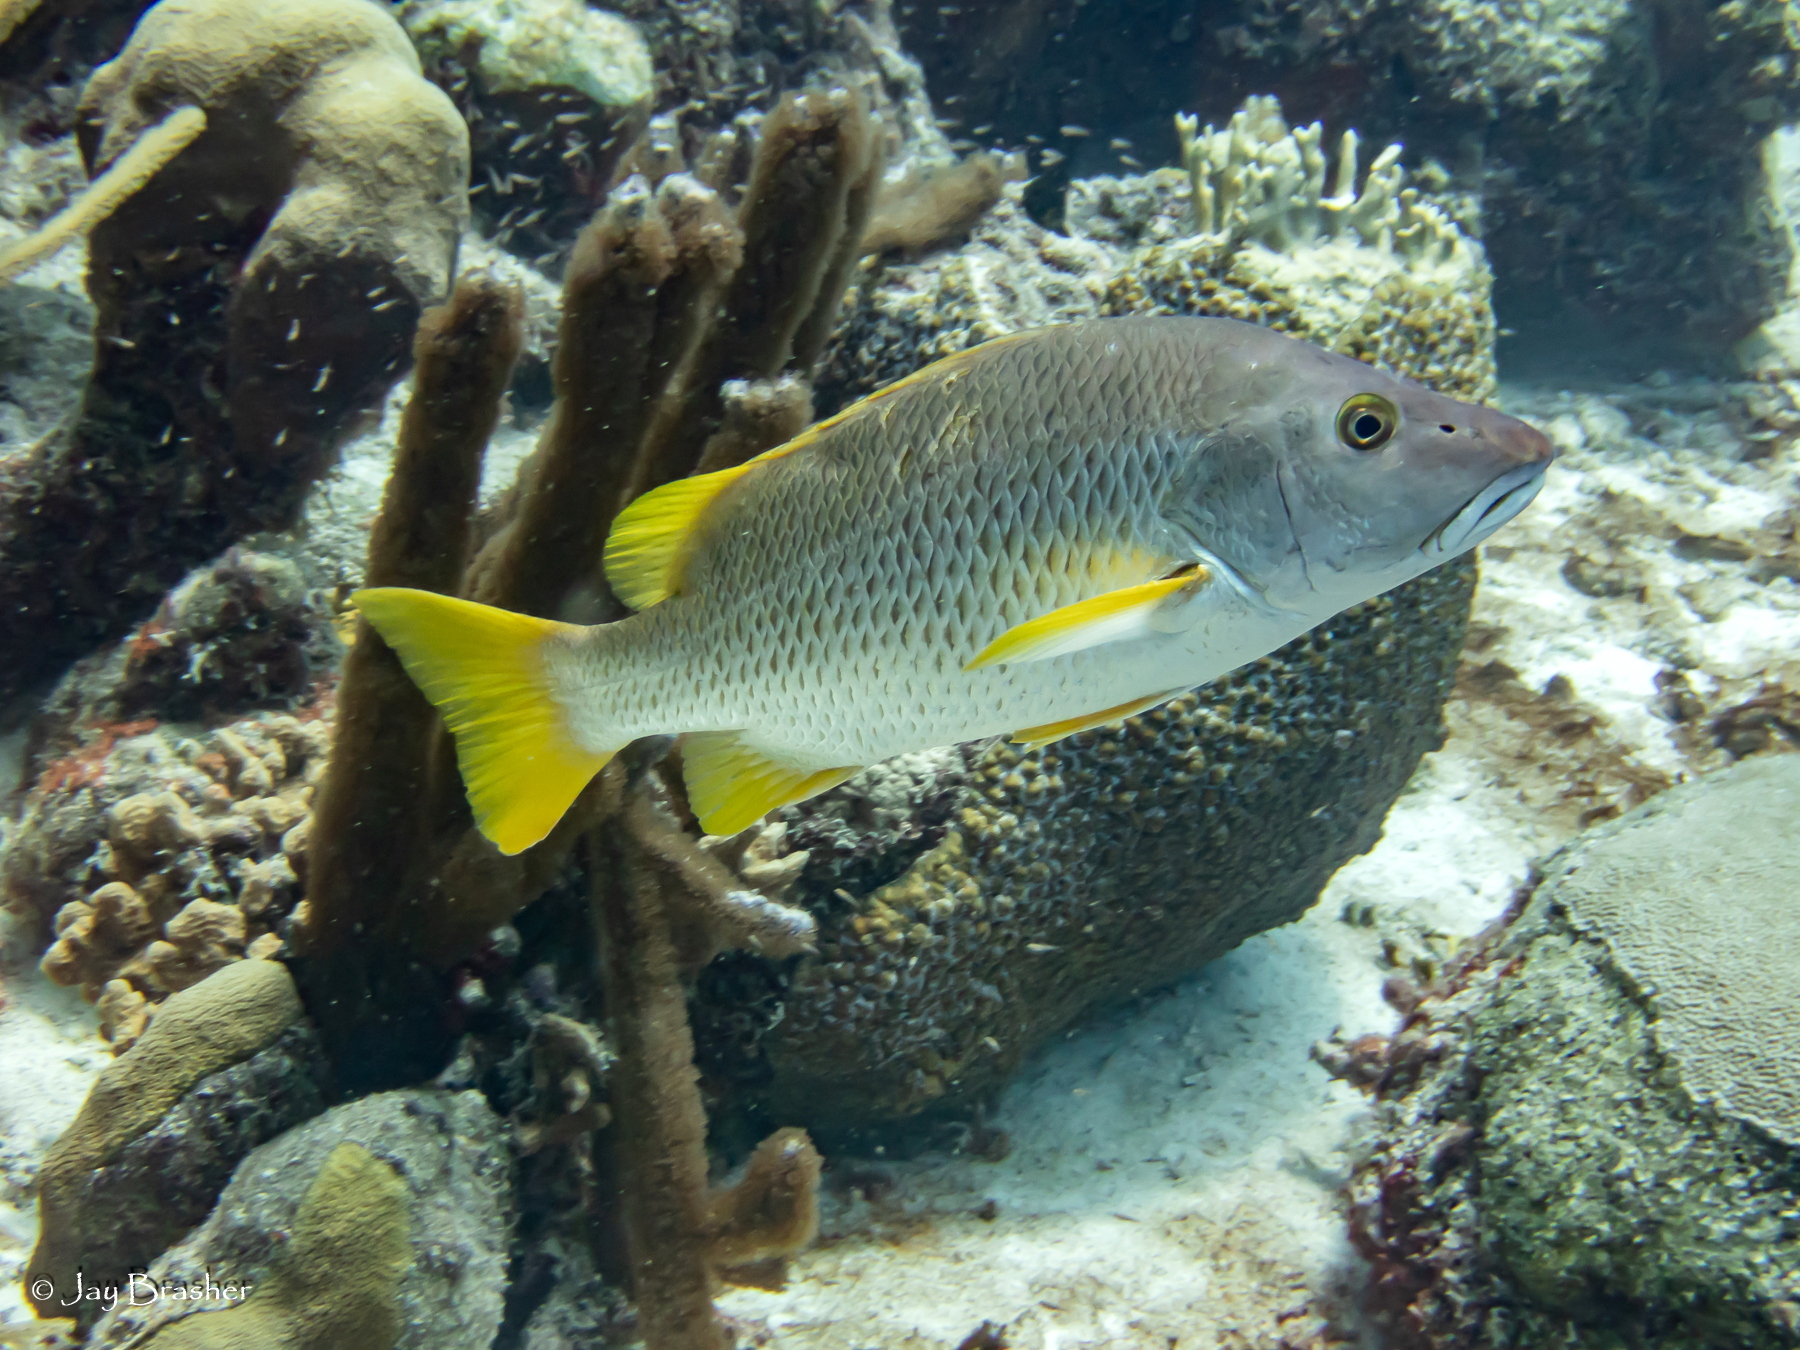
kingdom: Animalia
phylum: Chordata
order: Perciformes
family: Lutjanidae
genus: Lutjanus
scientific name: Lutjanus apodus
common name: Schoolmaster
